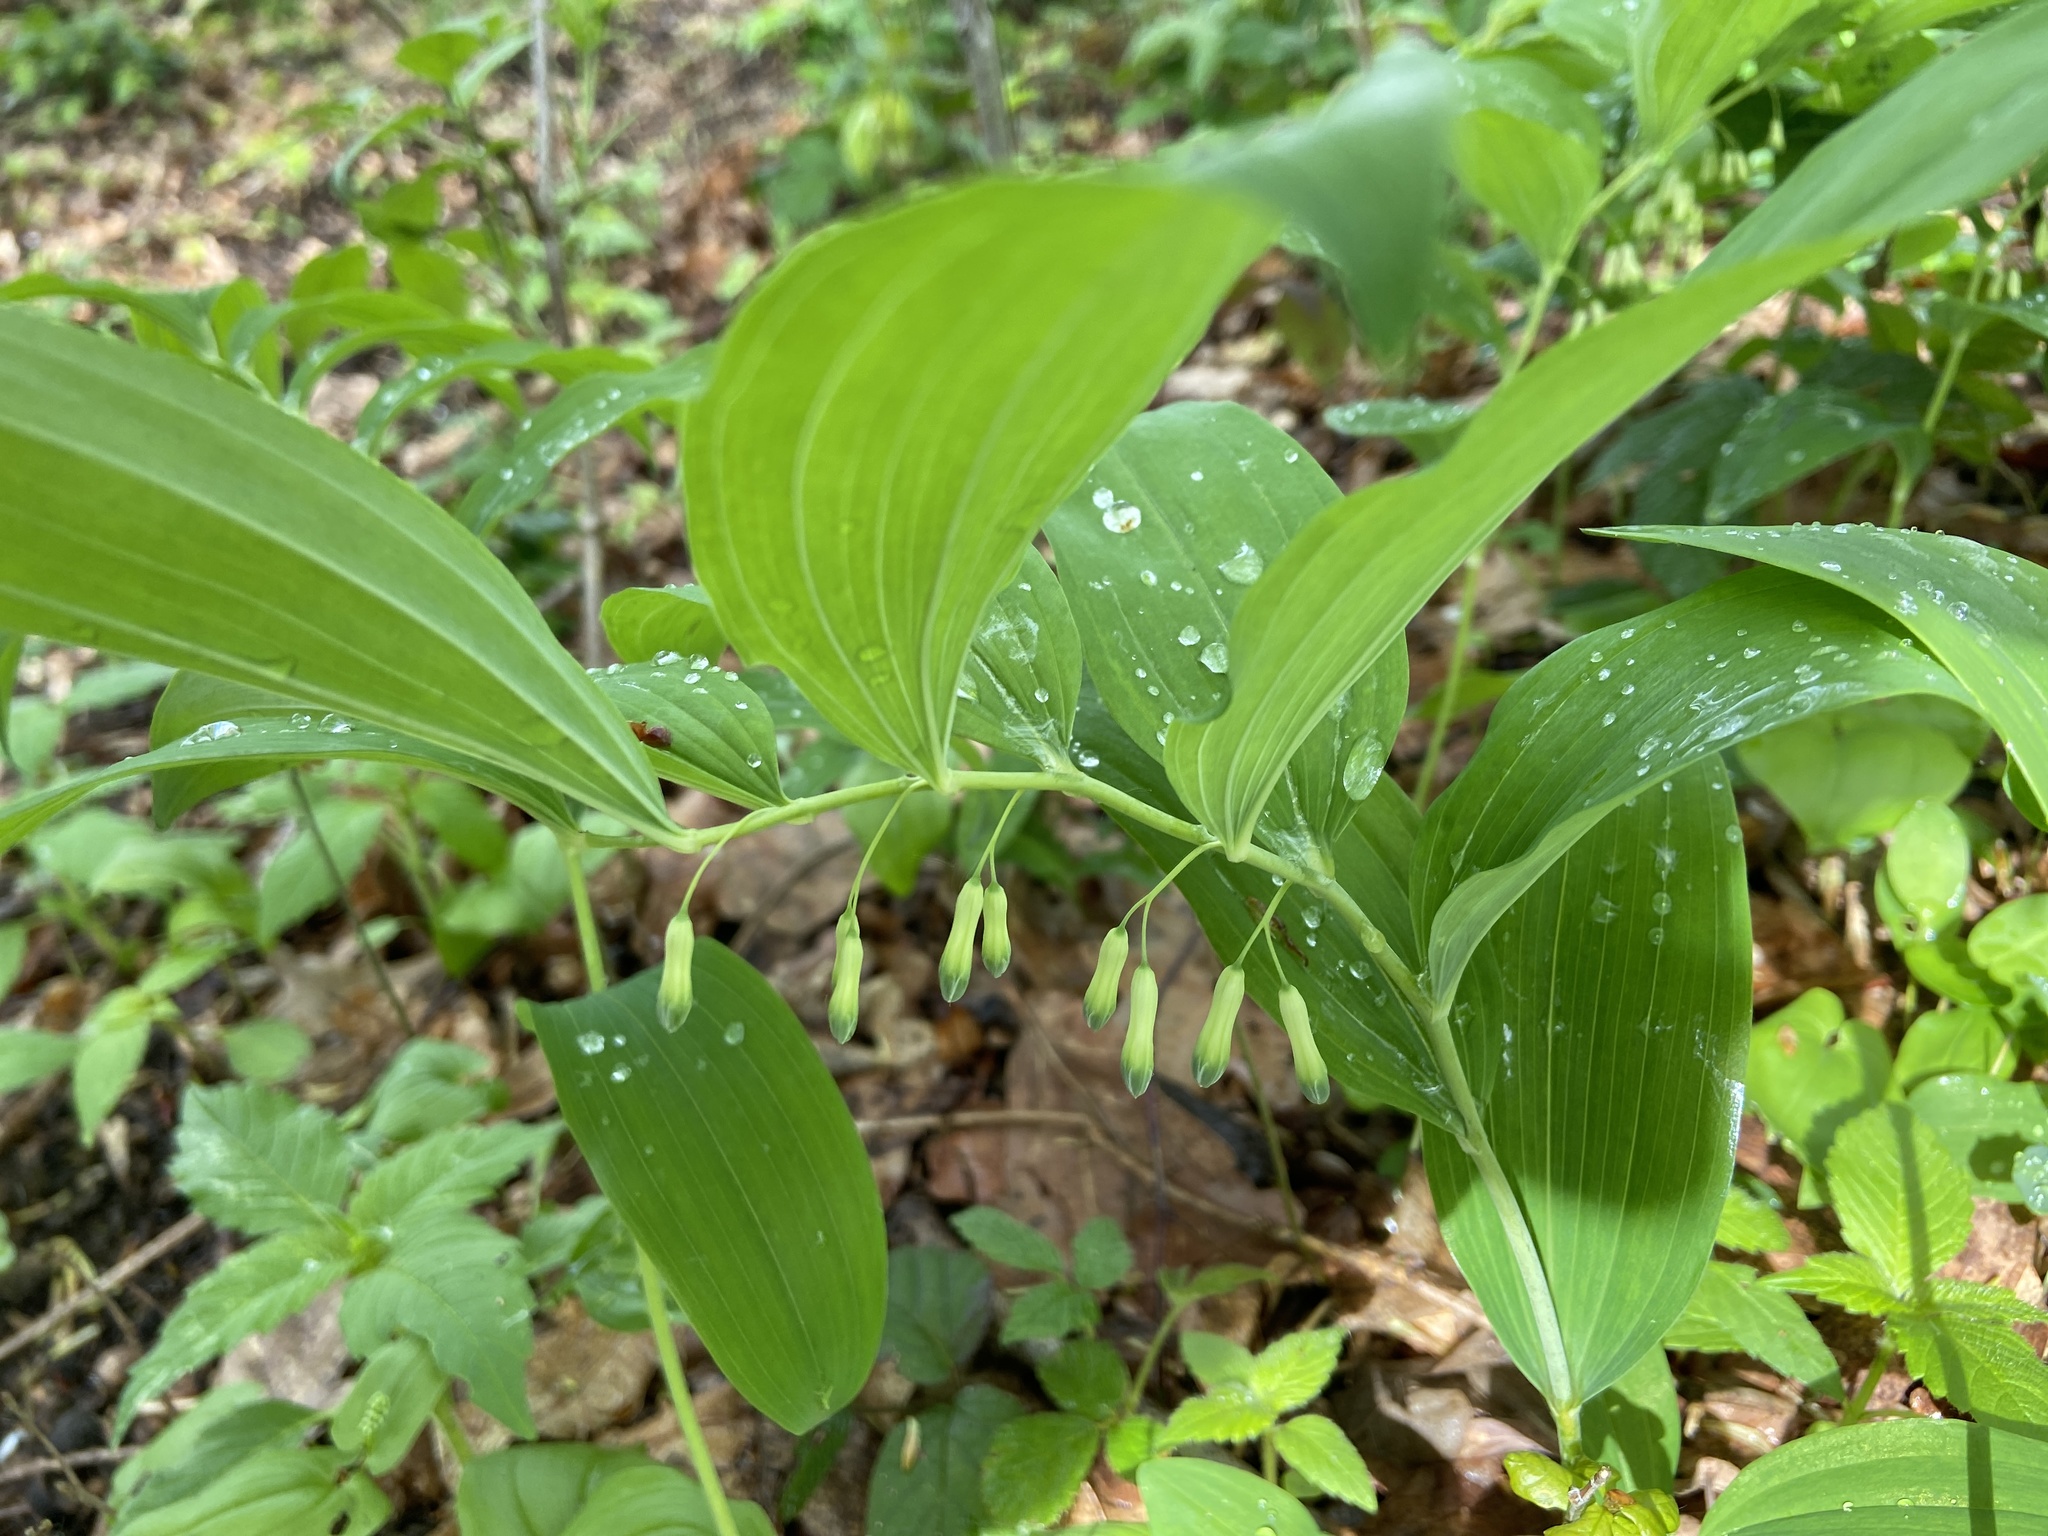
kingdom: Plantae
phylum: Tracheophyta
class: Liliopsida
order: Asparagales
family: Asparagaceae
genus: Polygonatum
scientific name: Polygonatum multiflorum
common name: Solomon's-seal
